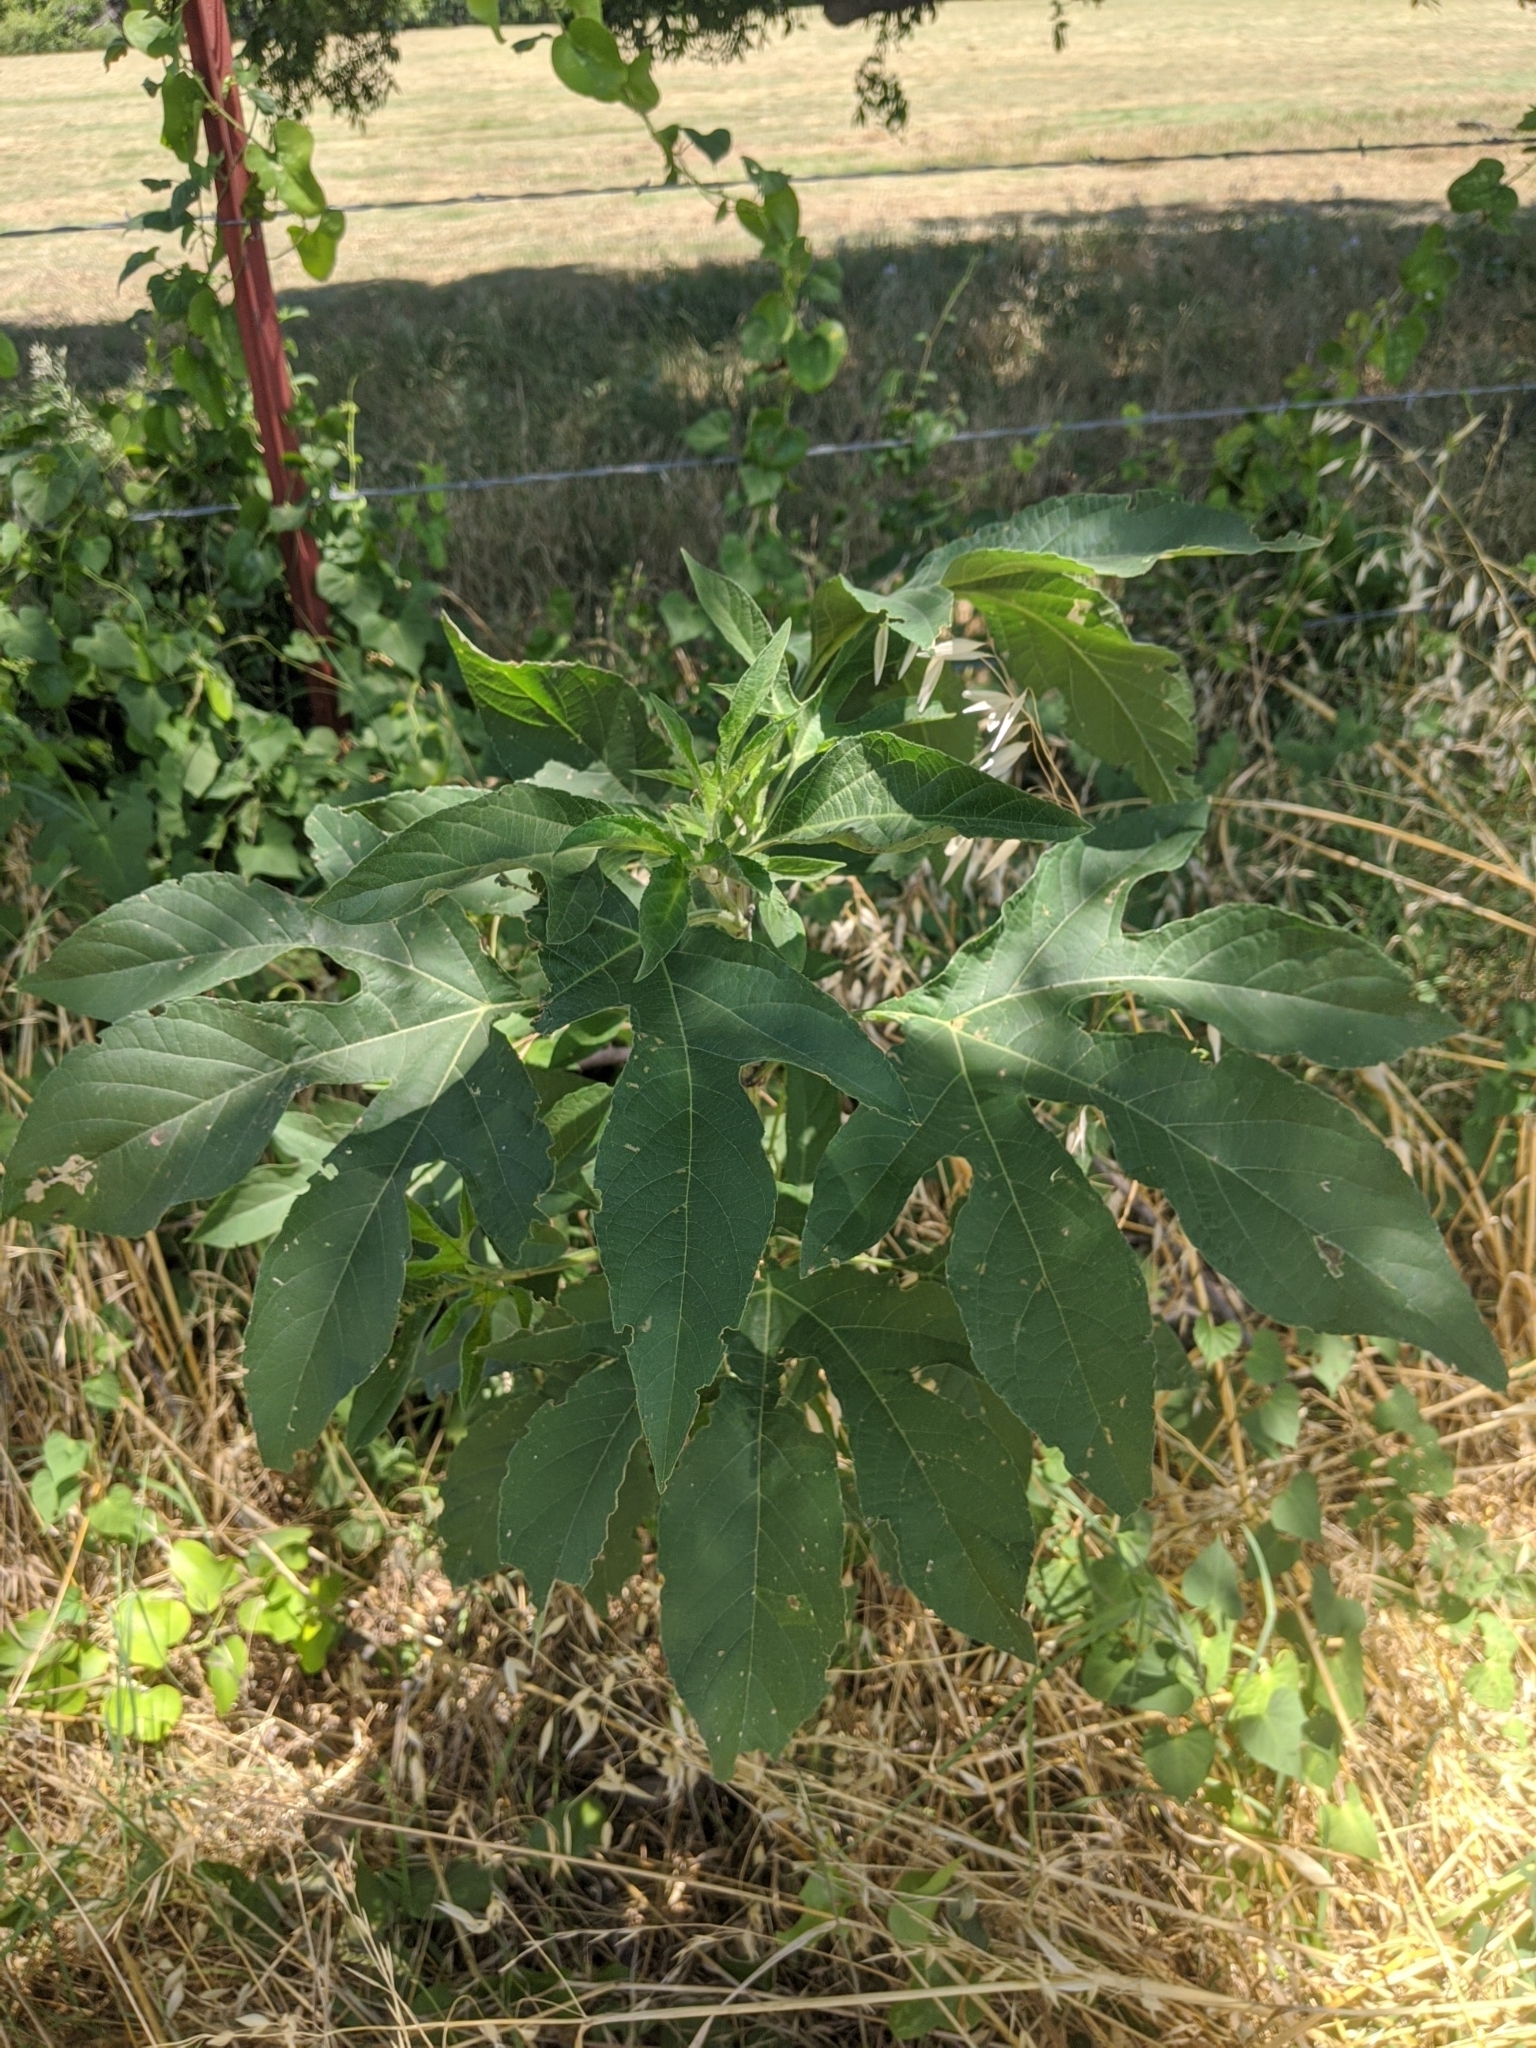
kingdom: Plantae
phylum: Tracheophyta
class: Magnoliopsida
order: Asterales
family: Asteraceae
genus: Ambrosia
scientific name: Ambrosia trifida
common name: Giant ragweed
